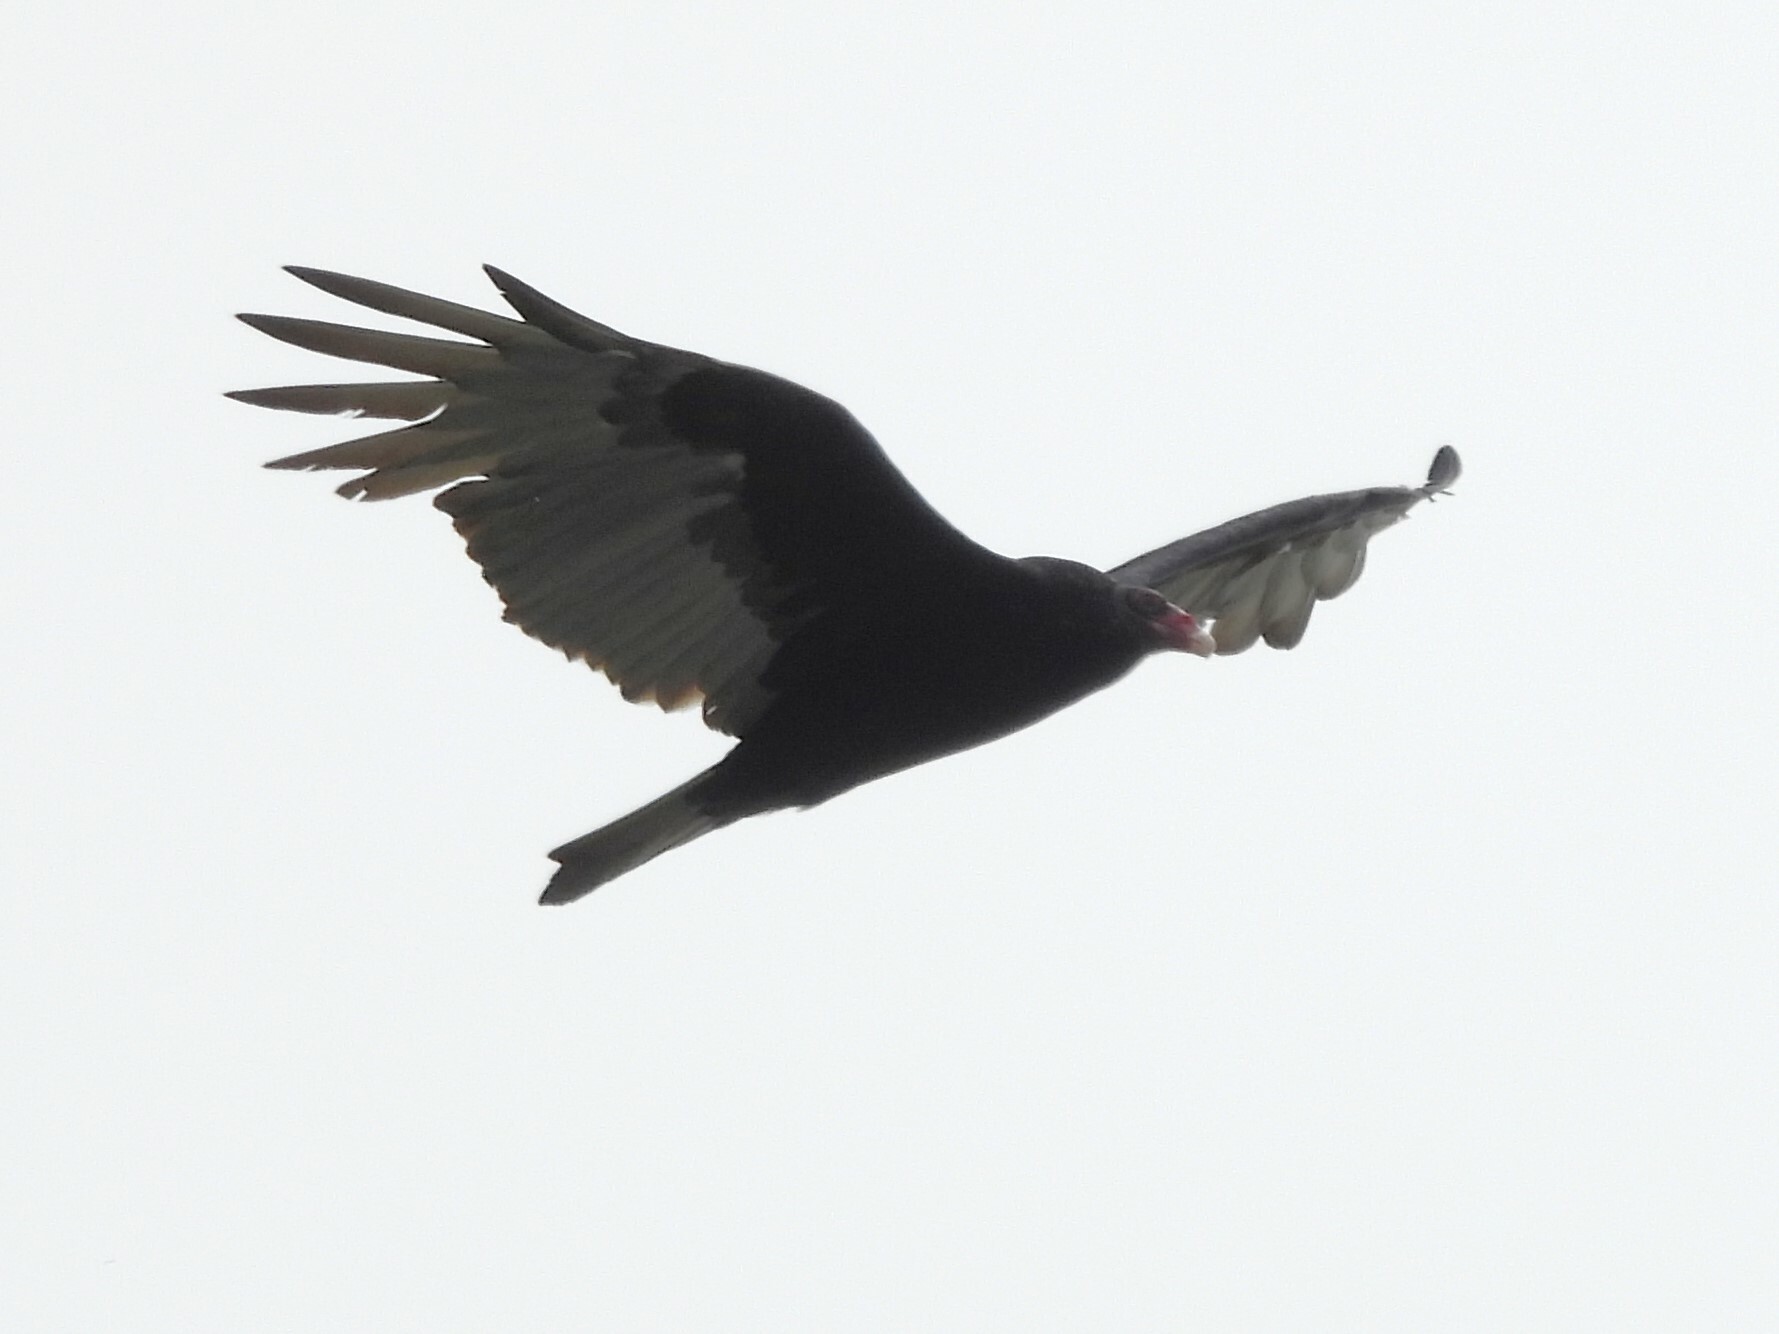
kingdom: Animalia
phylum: Chordata
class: Aves
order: Accipitriformes
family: Cathartidae
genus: Cathartes
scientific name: Cathartes aura
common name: Turkey vulture
